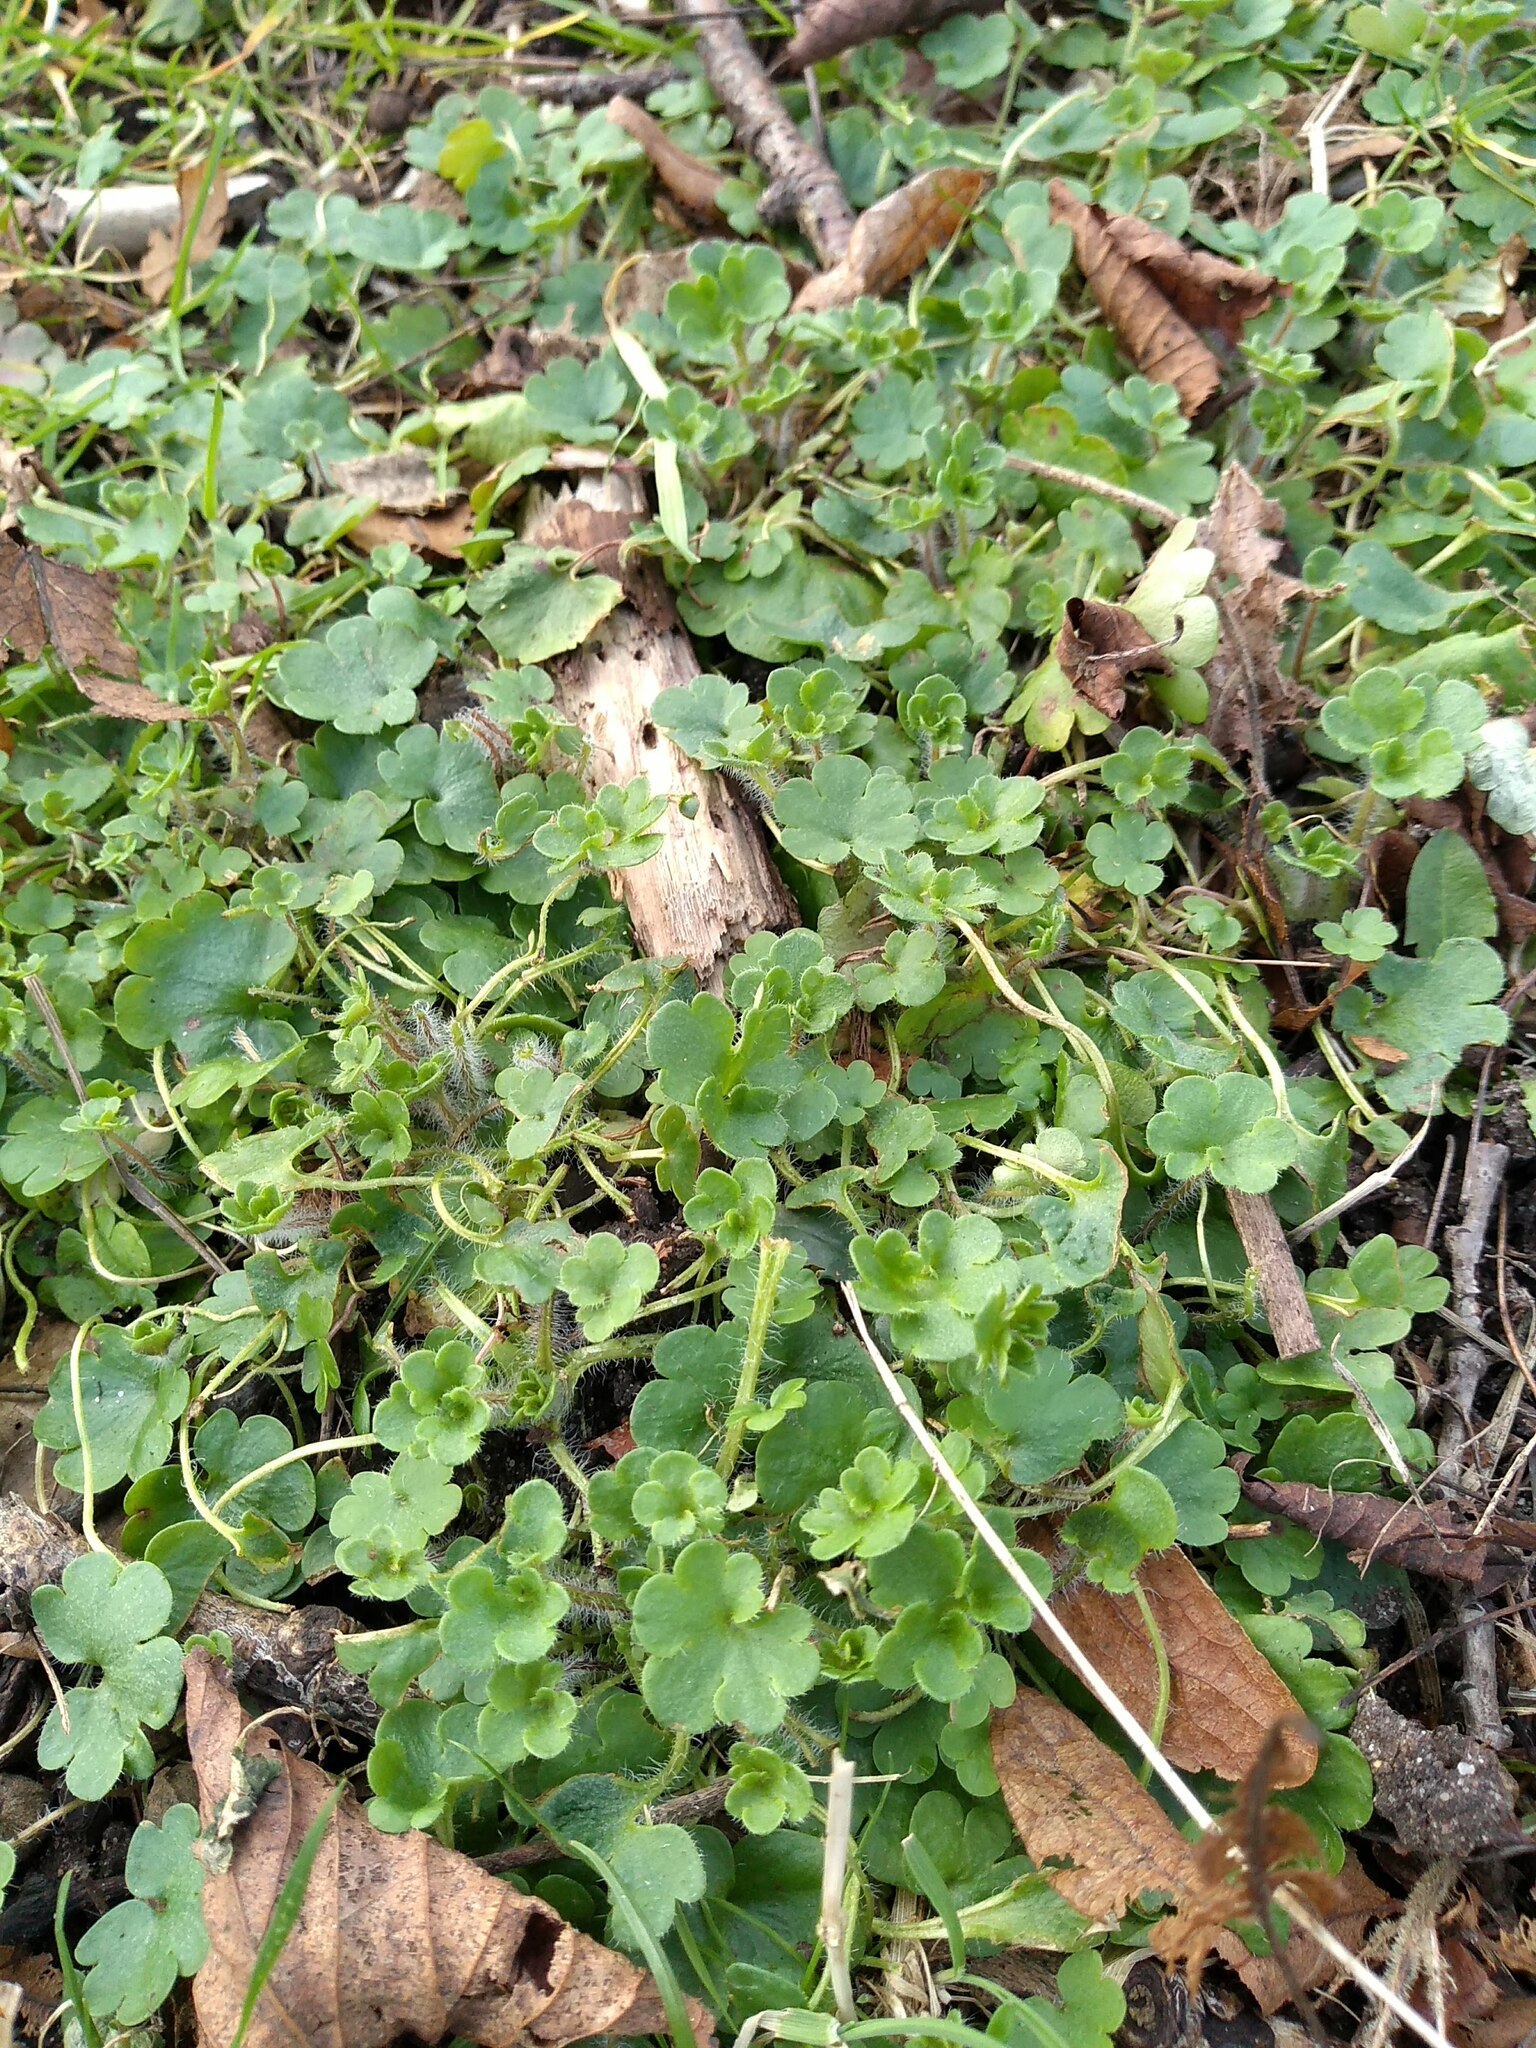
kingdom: Plantae
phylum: Tracheophyta
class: Magnoliopsida
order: Saxifragales
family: Saxifragaceae
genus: Saxifraga
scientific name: Saxifraga granulata
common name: Meadow saxifrage
